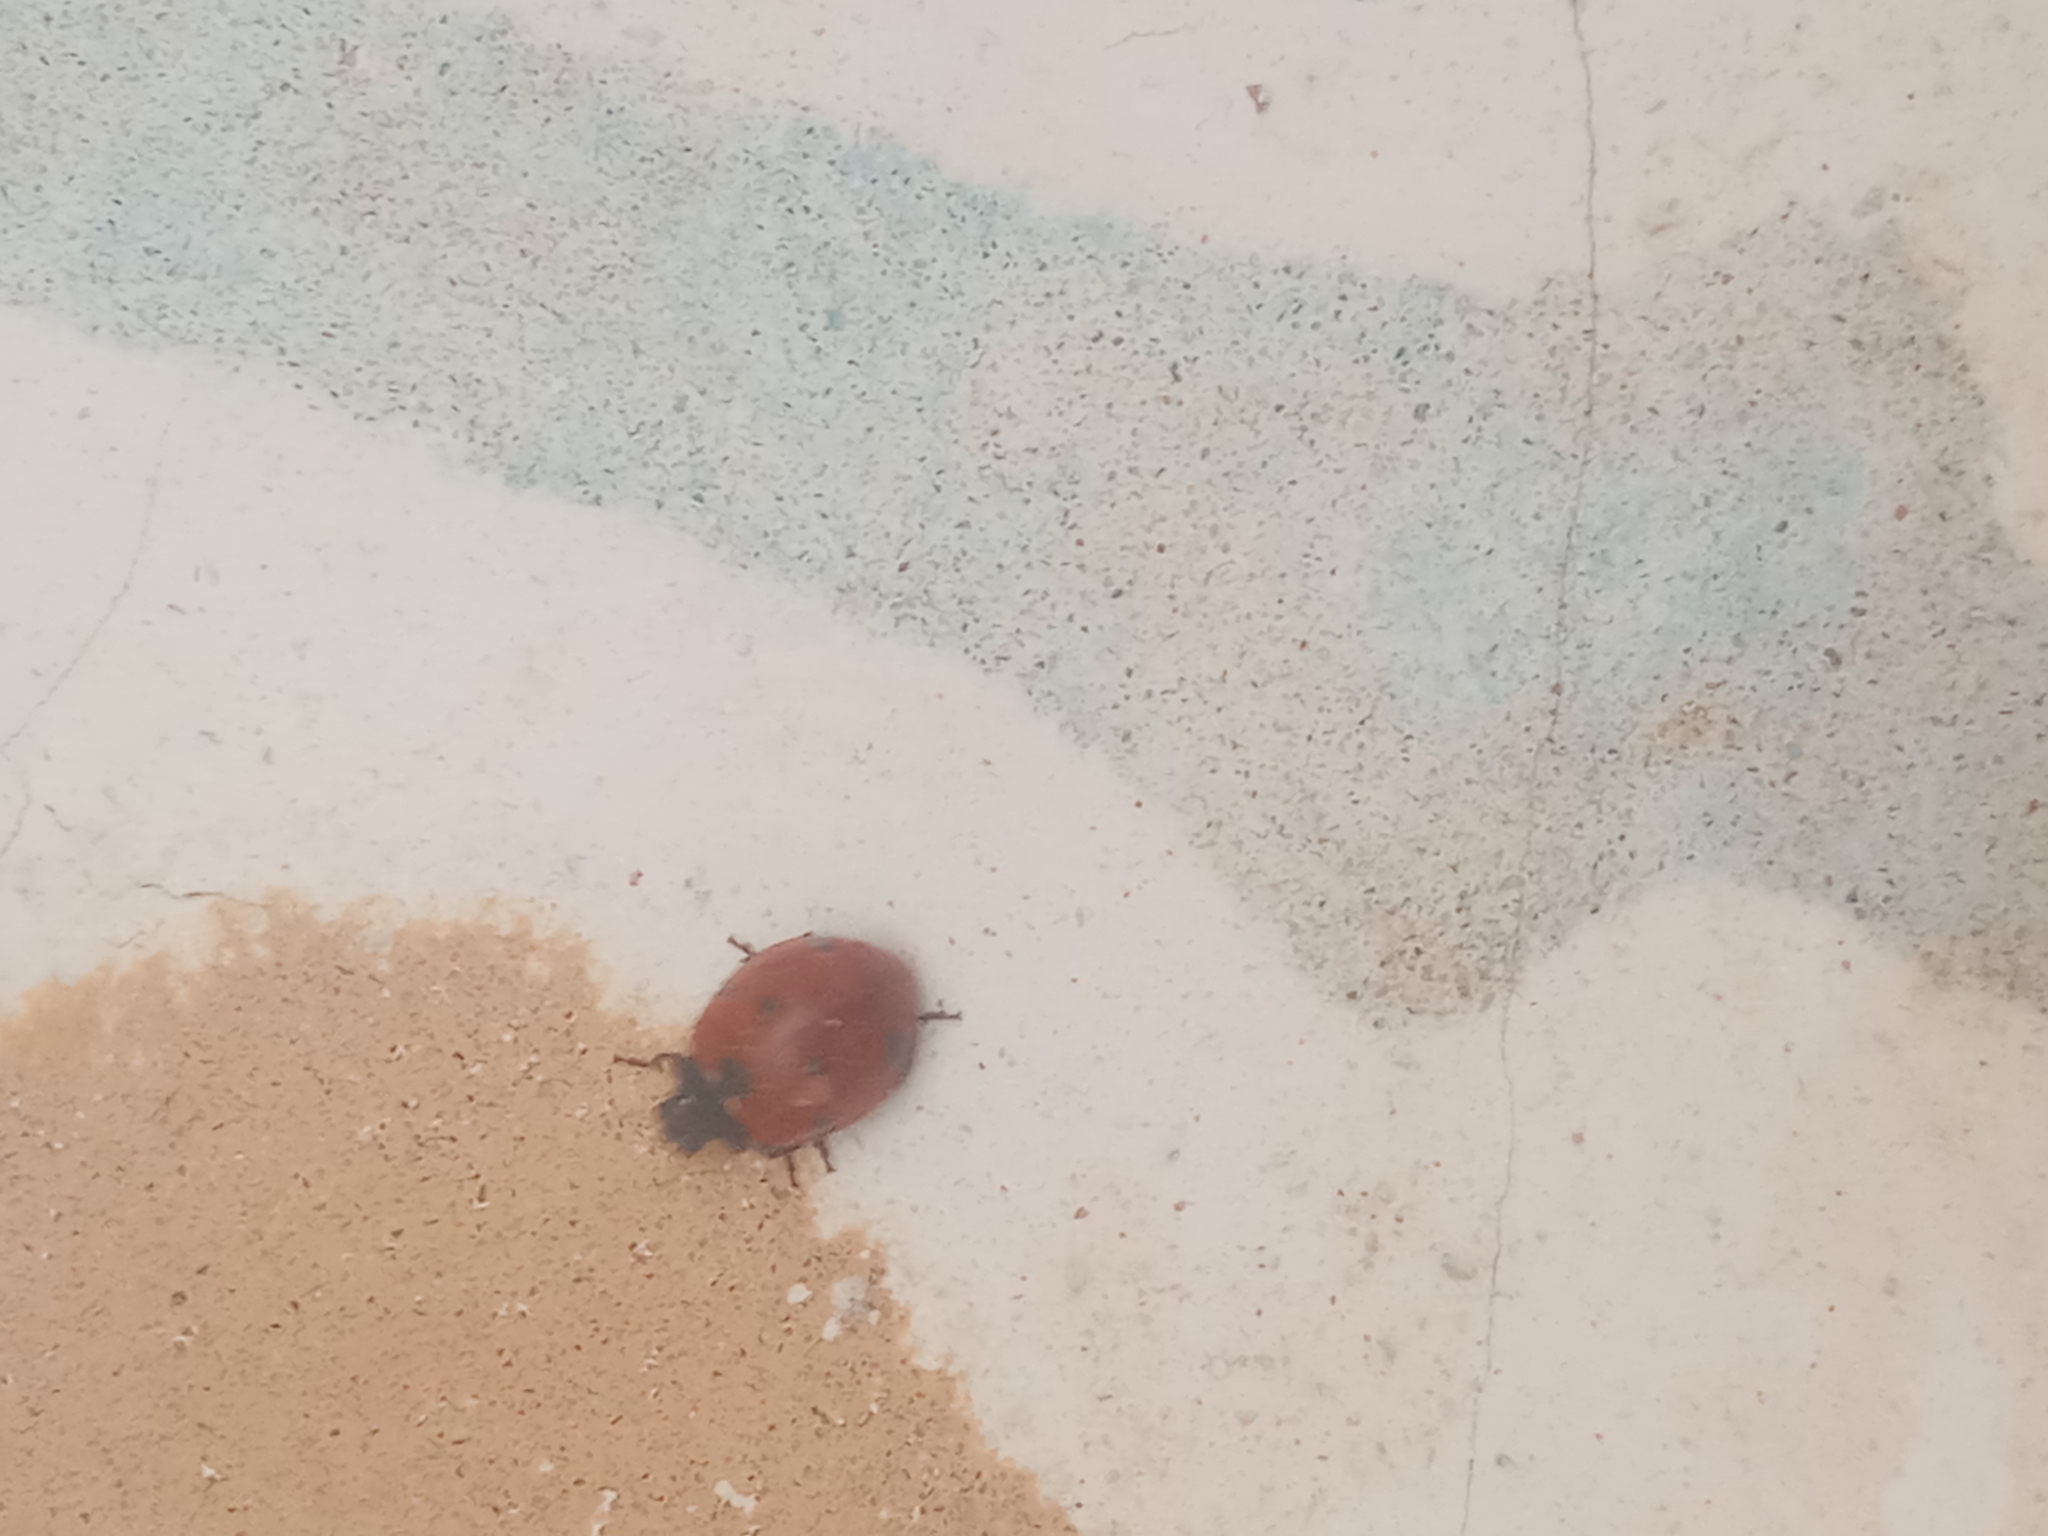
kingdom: Animalia
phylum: Arthropoda
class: Insecta
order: Coleoptera
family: Coccinellidae
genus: Coccinella
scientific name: Coccinella algerica
